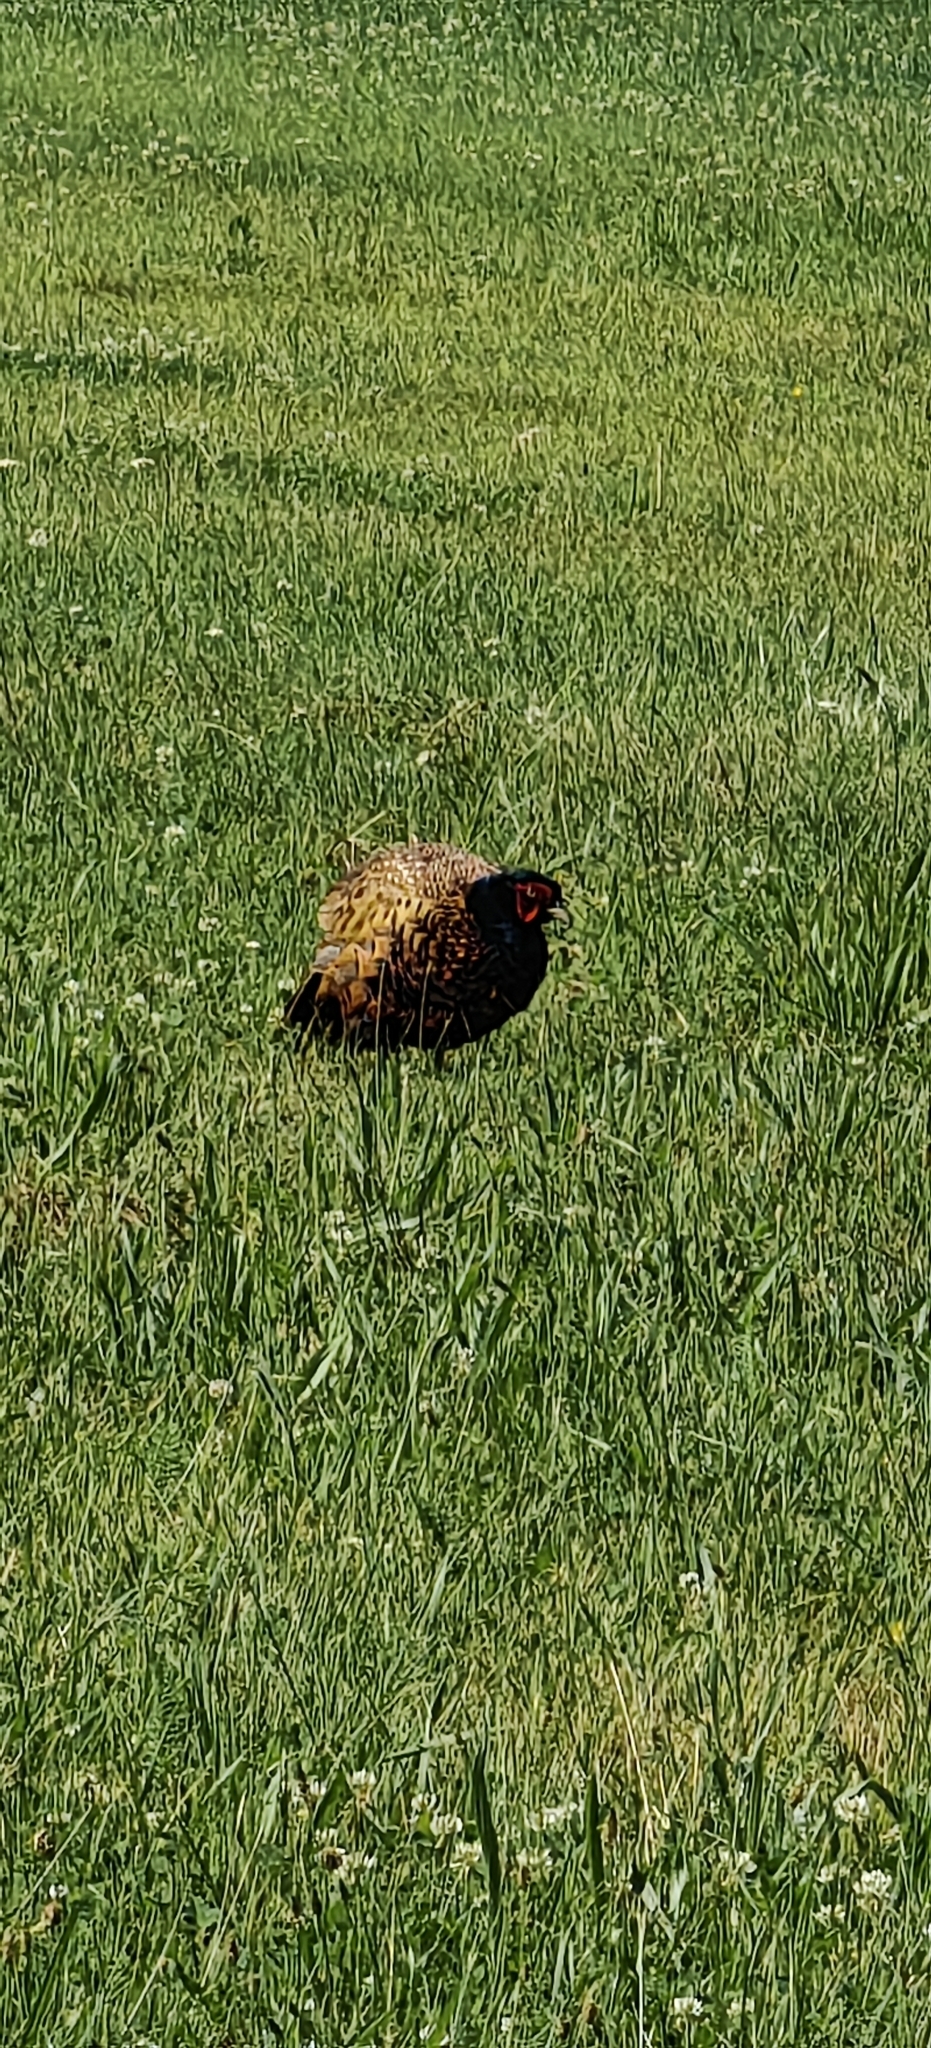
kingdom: Animalia
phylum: Chordata
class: Aves
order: Galliformes
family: Phasianidae
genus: Phasianus
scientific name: Phasianus colchicus
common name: Common pheasant
